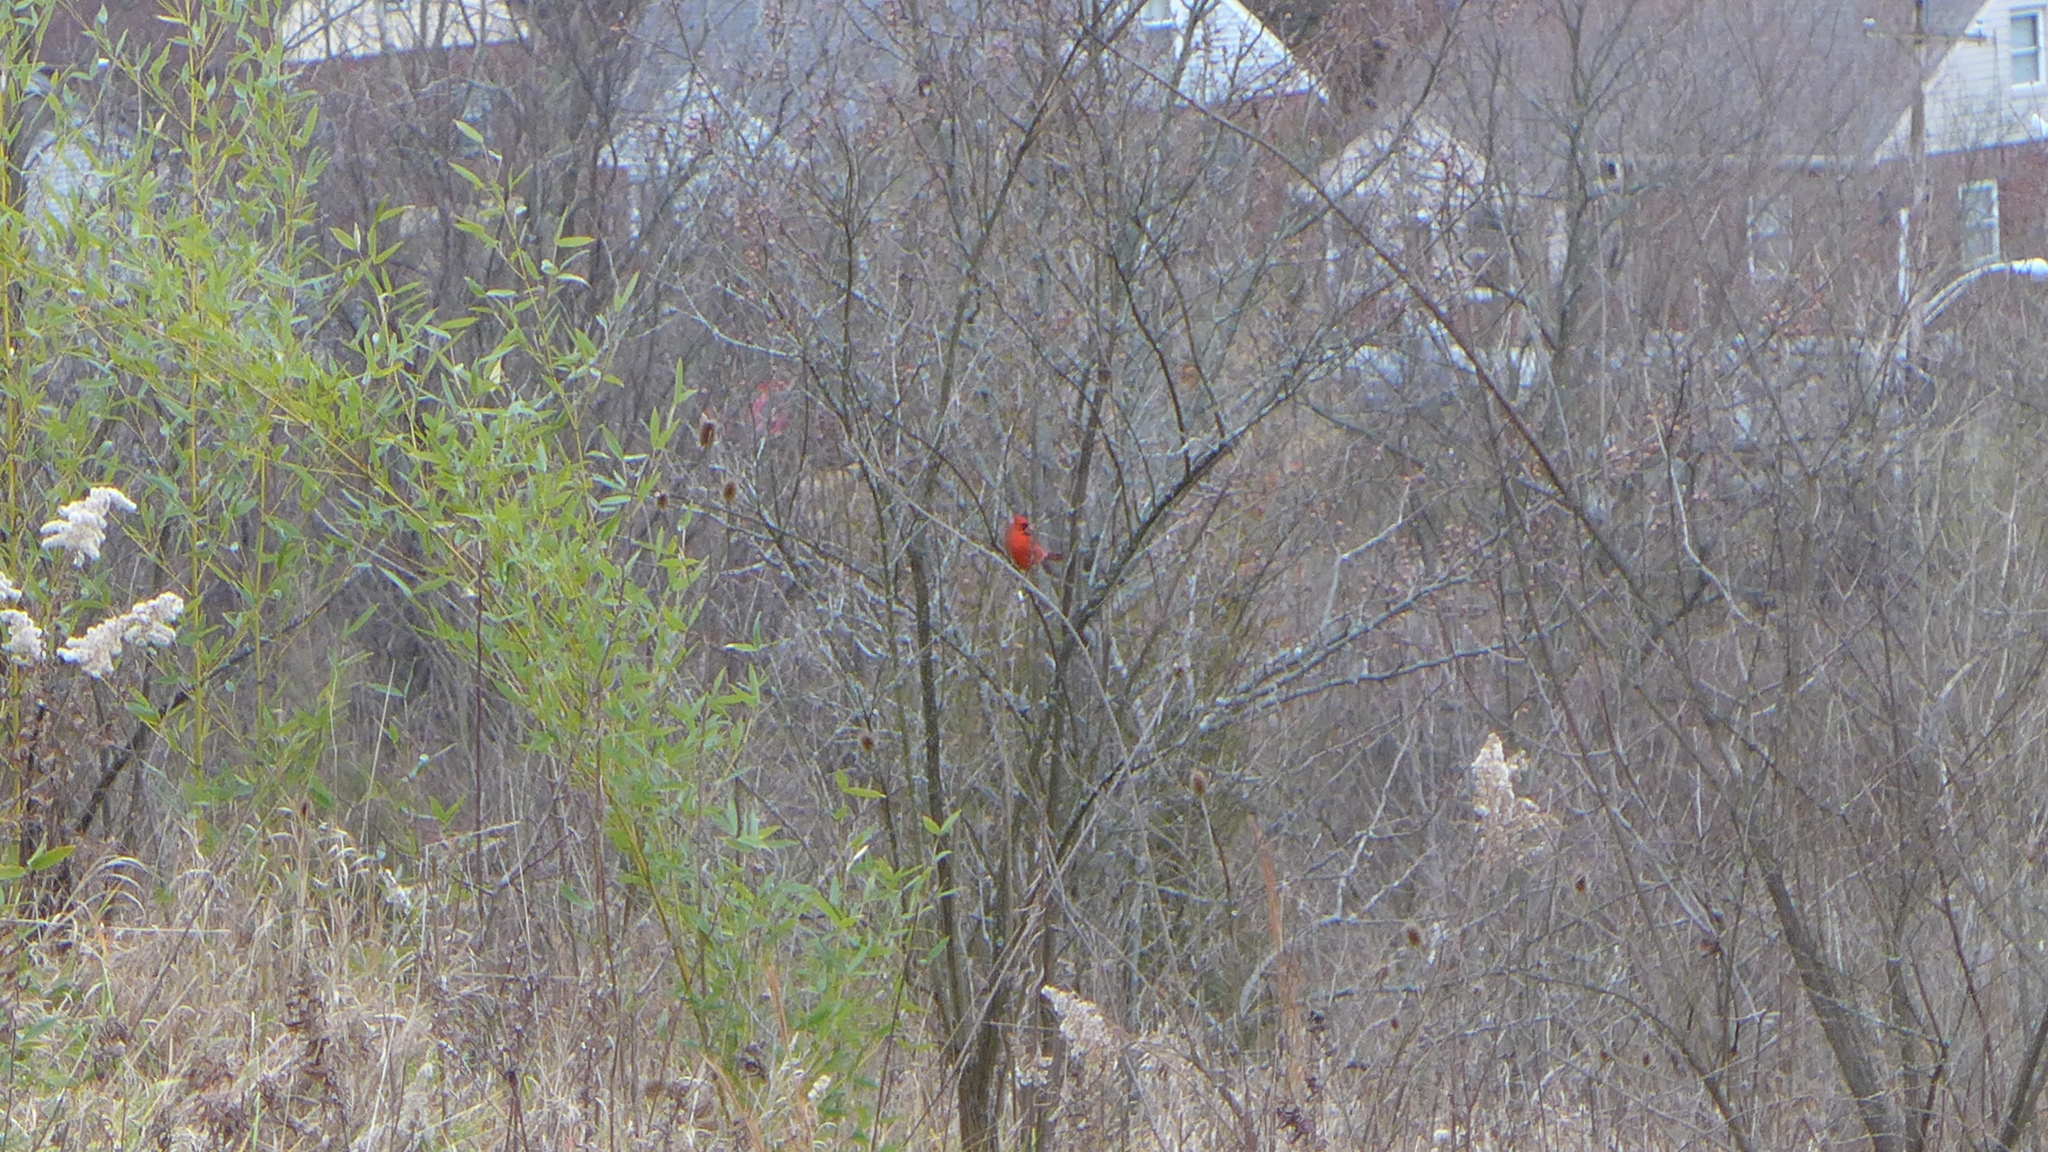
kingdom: Animalia
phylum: Chordata
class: Aves
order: Passeriformes
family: Cardinalidae
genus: Cardinalis
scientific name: Cardinalis cardinalis
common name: Northern cardinal
